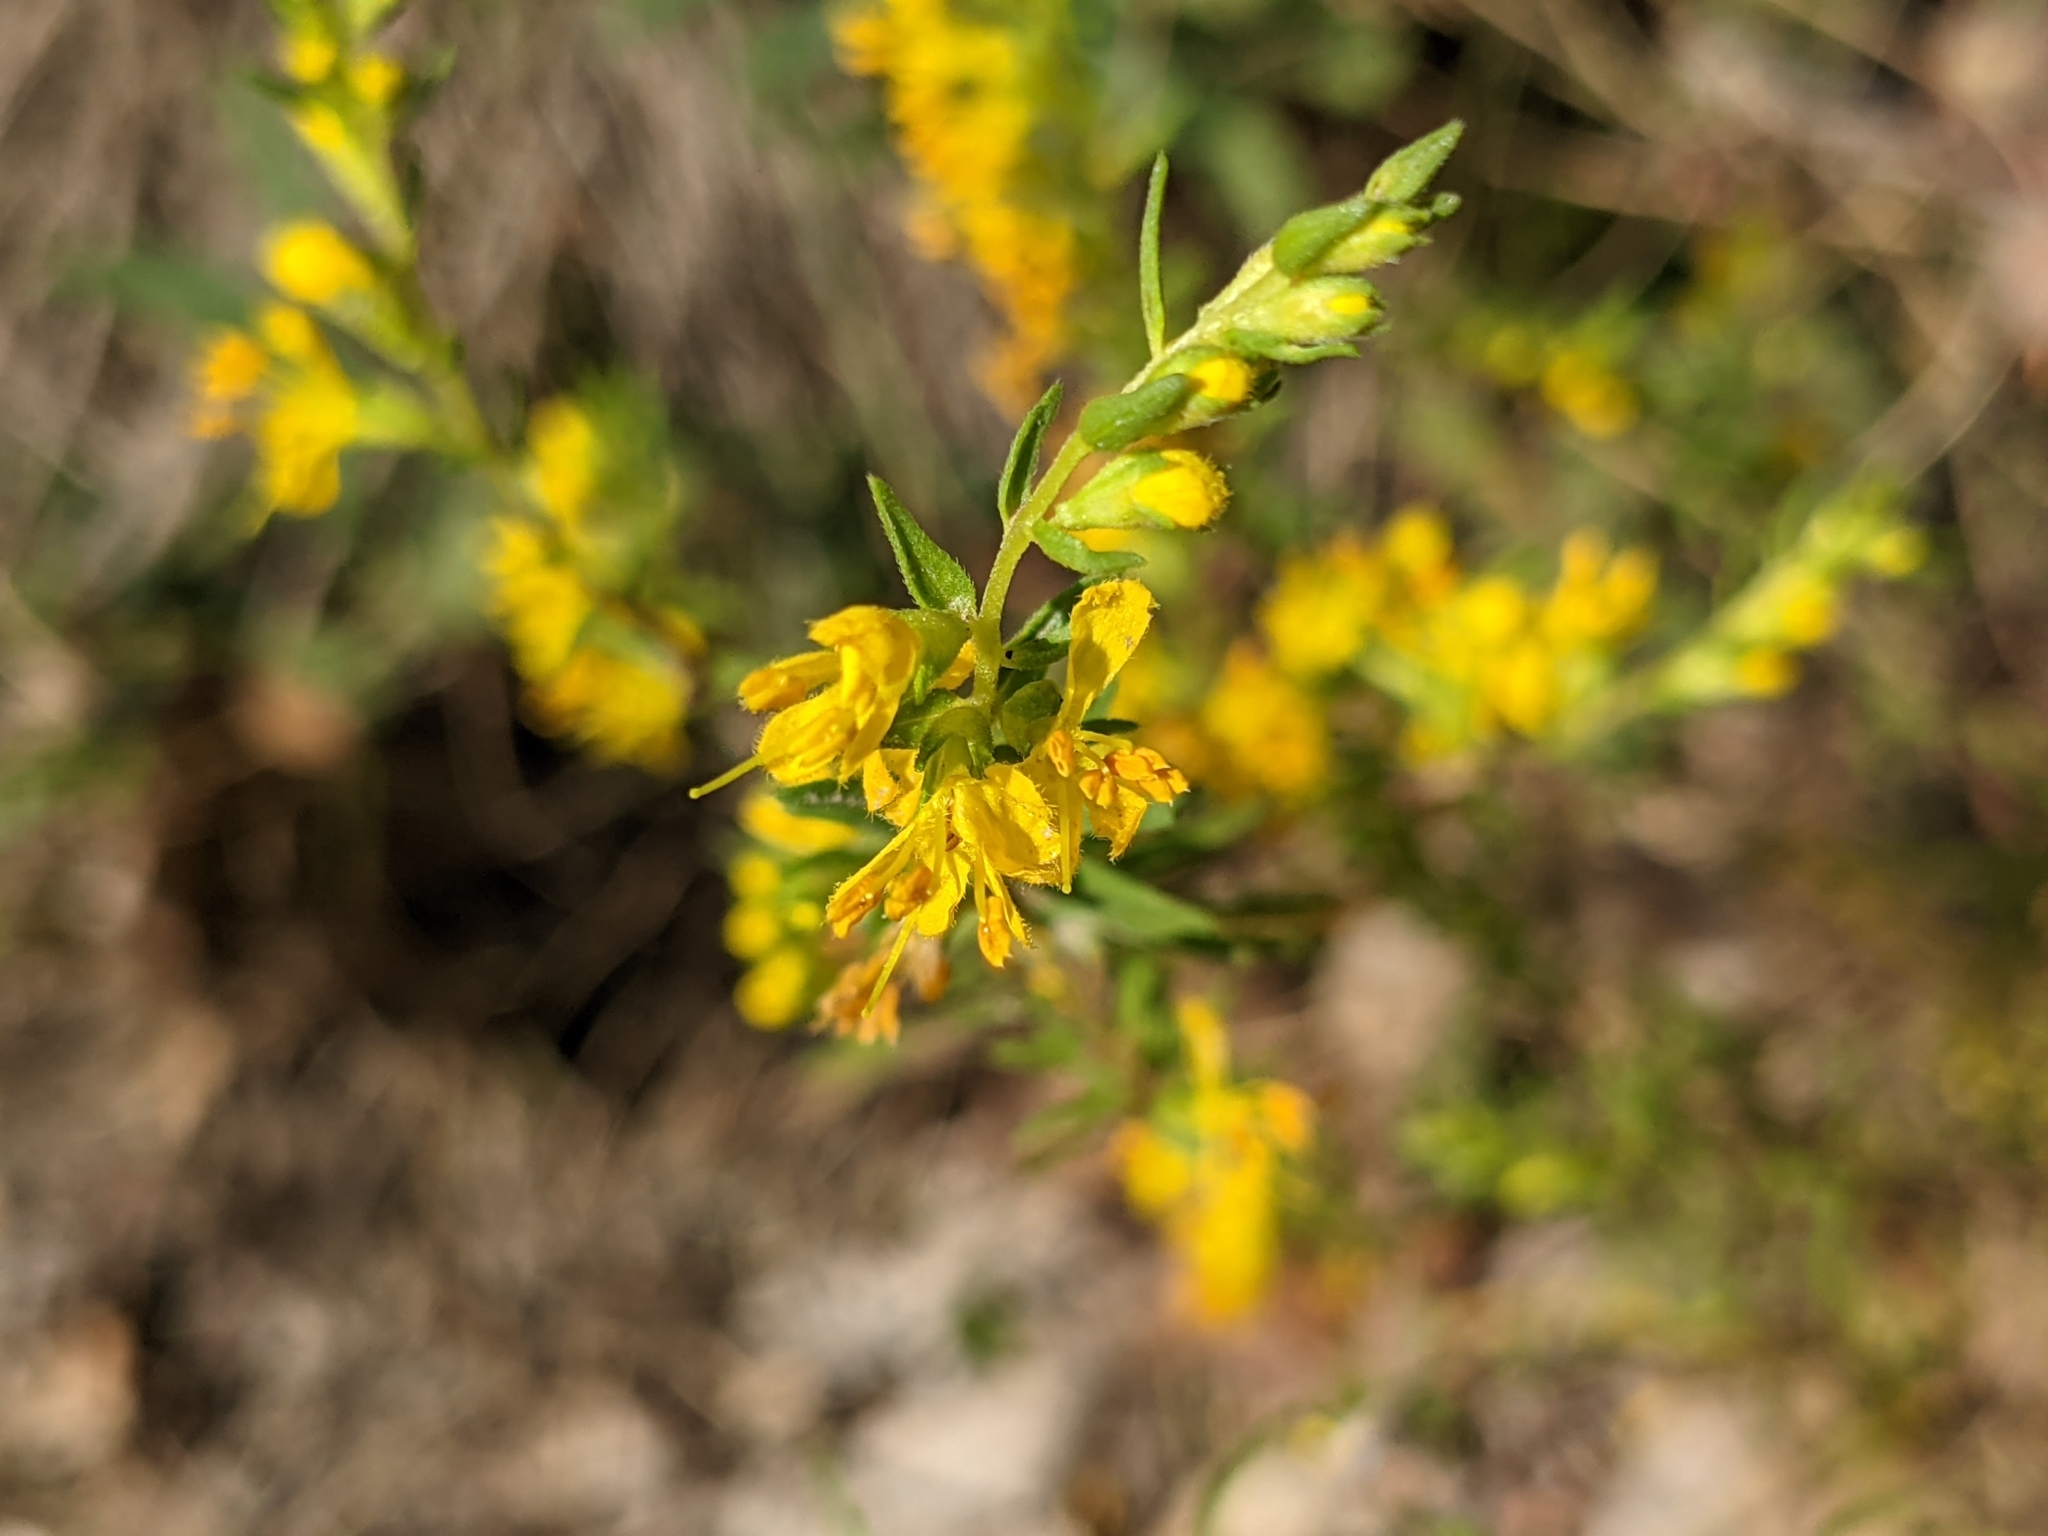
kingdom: Plantae
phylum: Tracheophyta
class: Magnoliopsida
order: Lamiales
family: Orobanchaceae
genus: Odontites
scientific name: Odontites luteus
